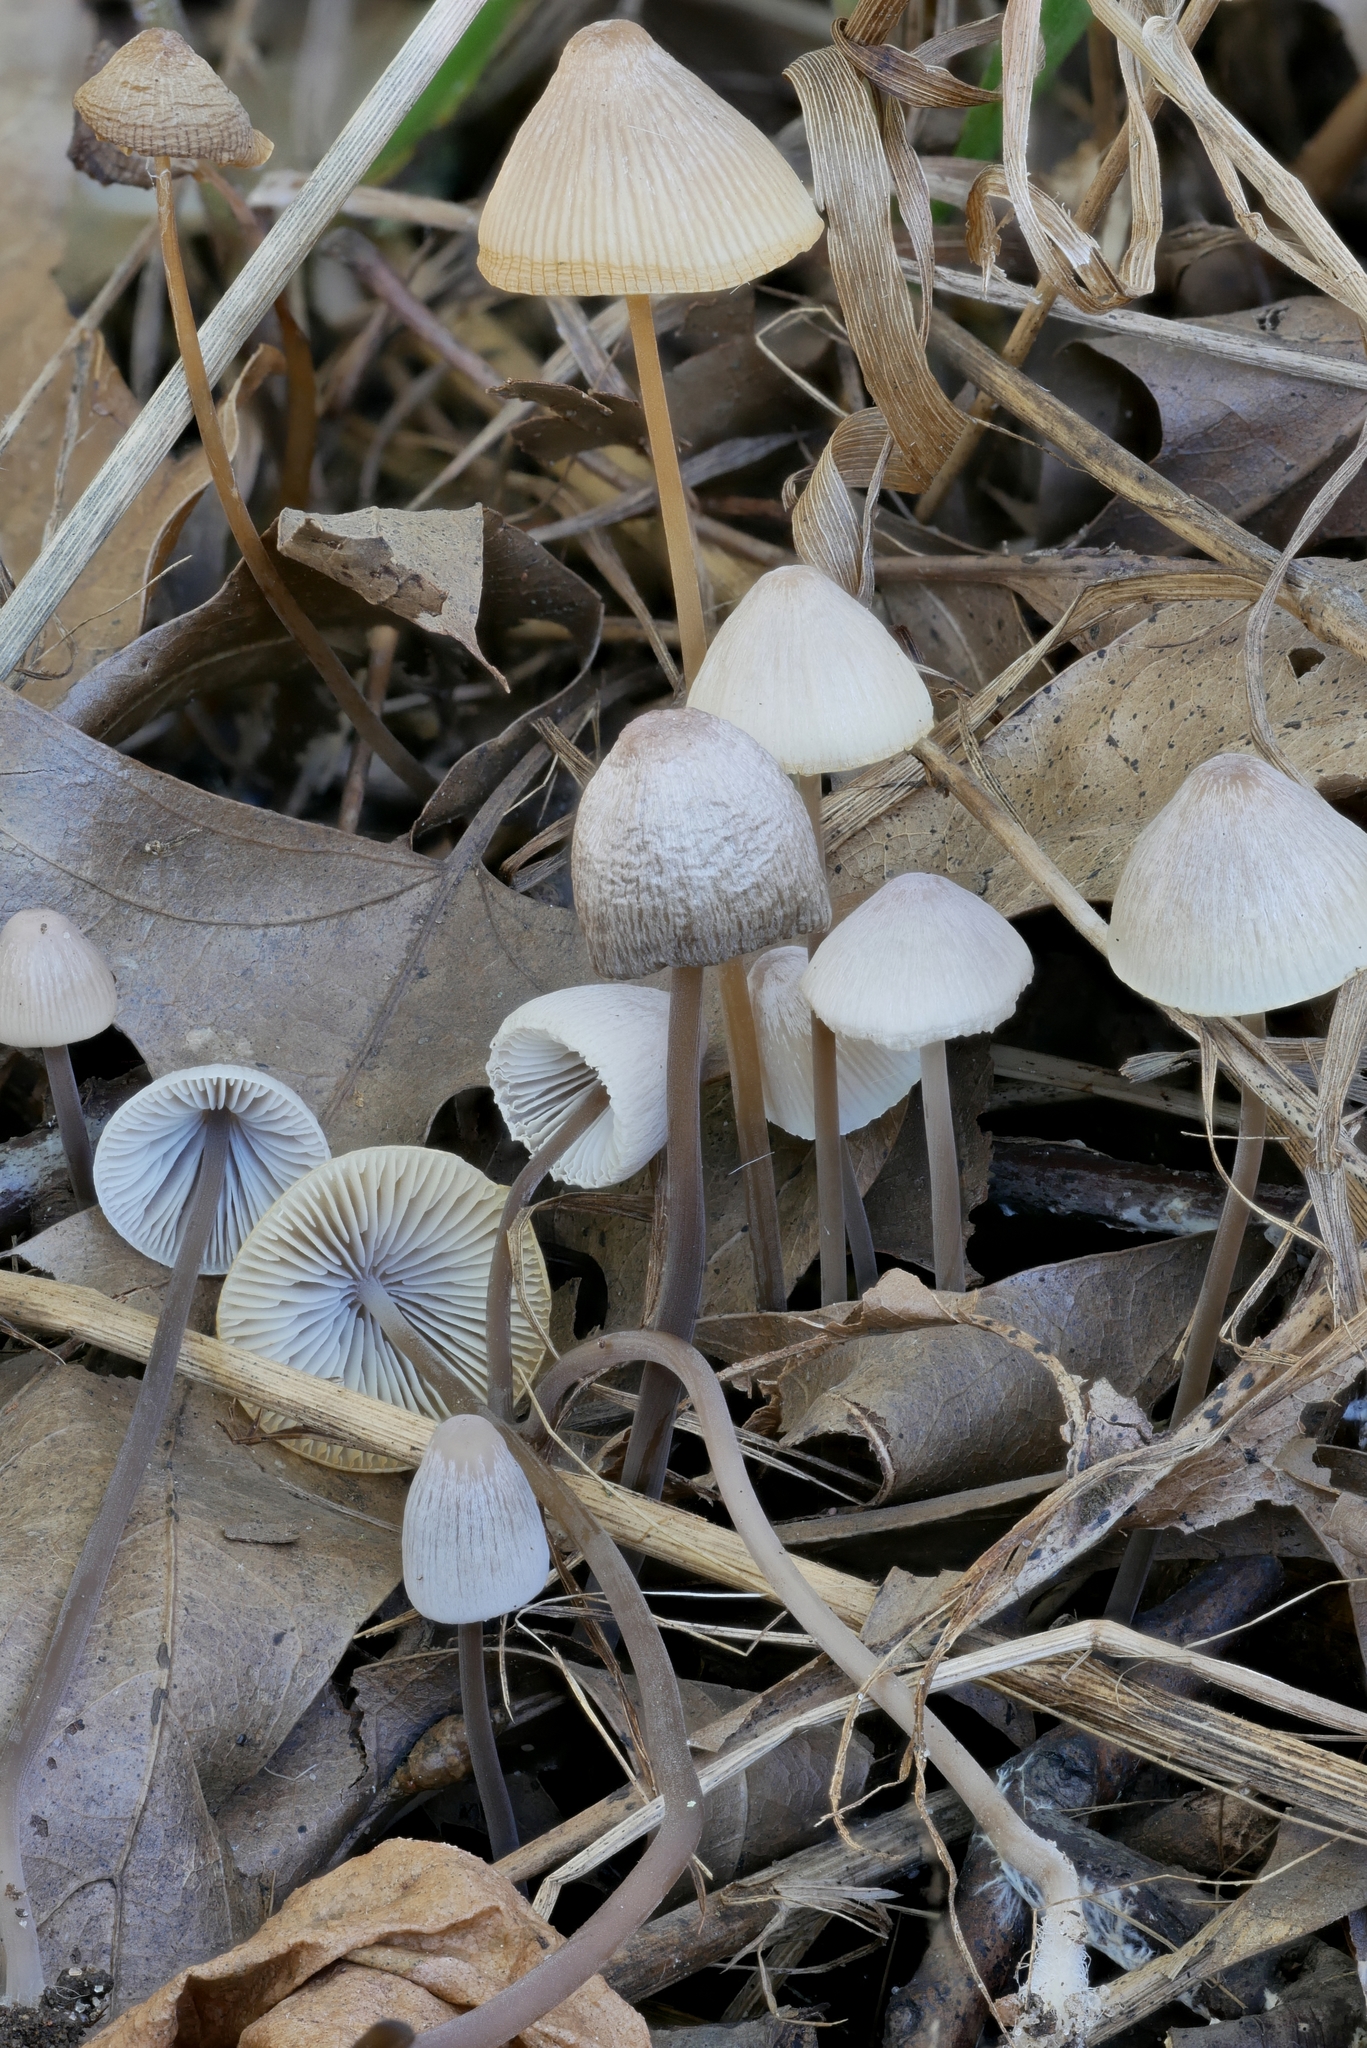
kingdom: Fungi
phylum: Basidiomycota
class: Agaricomycetes
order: Agaricales
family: Mycenaceae
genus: Mycena
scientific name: Mycena filopes
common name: Iodine bonnet
